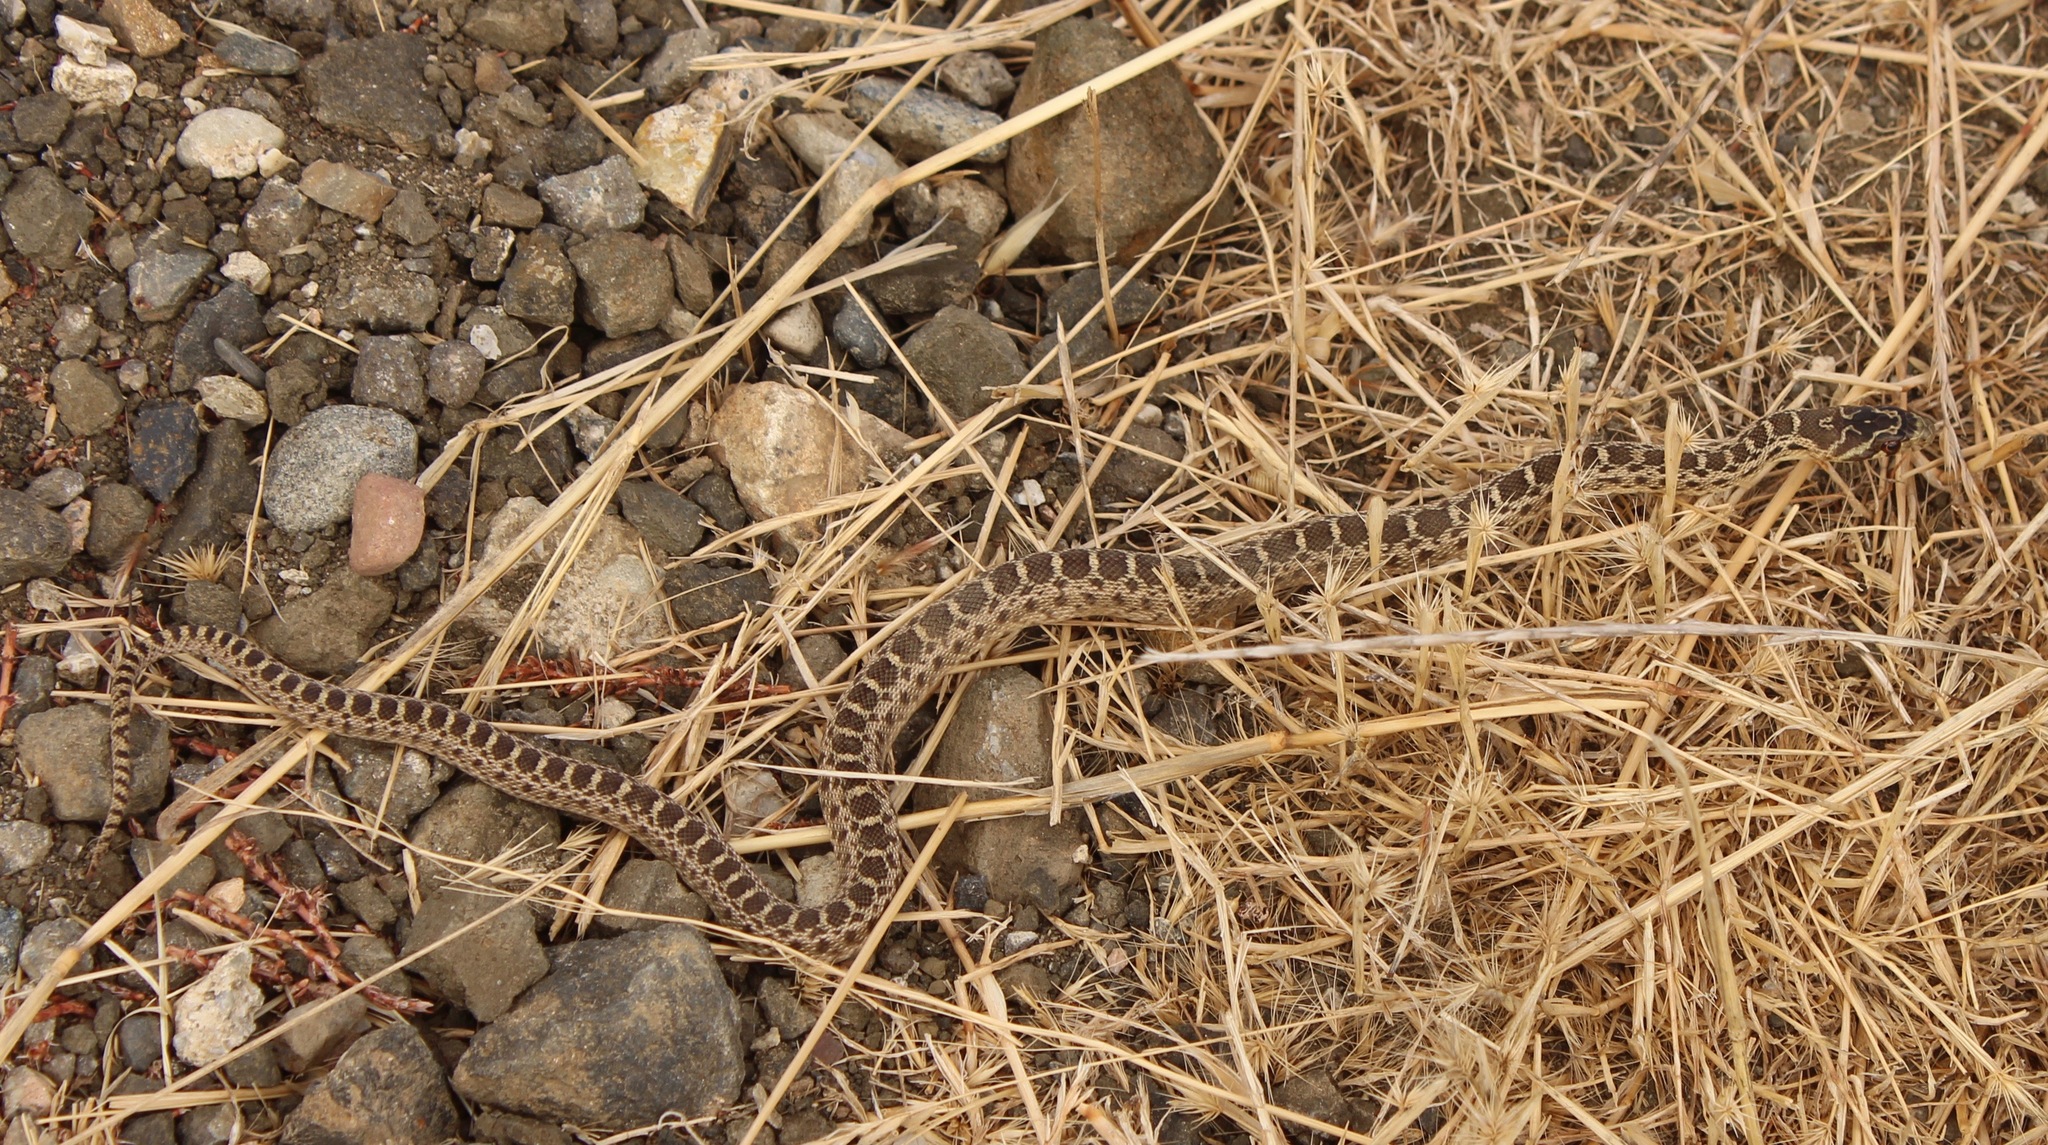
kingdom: Animalia
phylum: Chordata
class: Squamata
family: Colubridae
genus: Pituophis
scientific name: Pituophis catenifer
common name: Gopher snake
